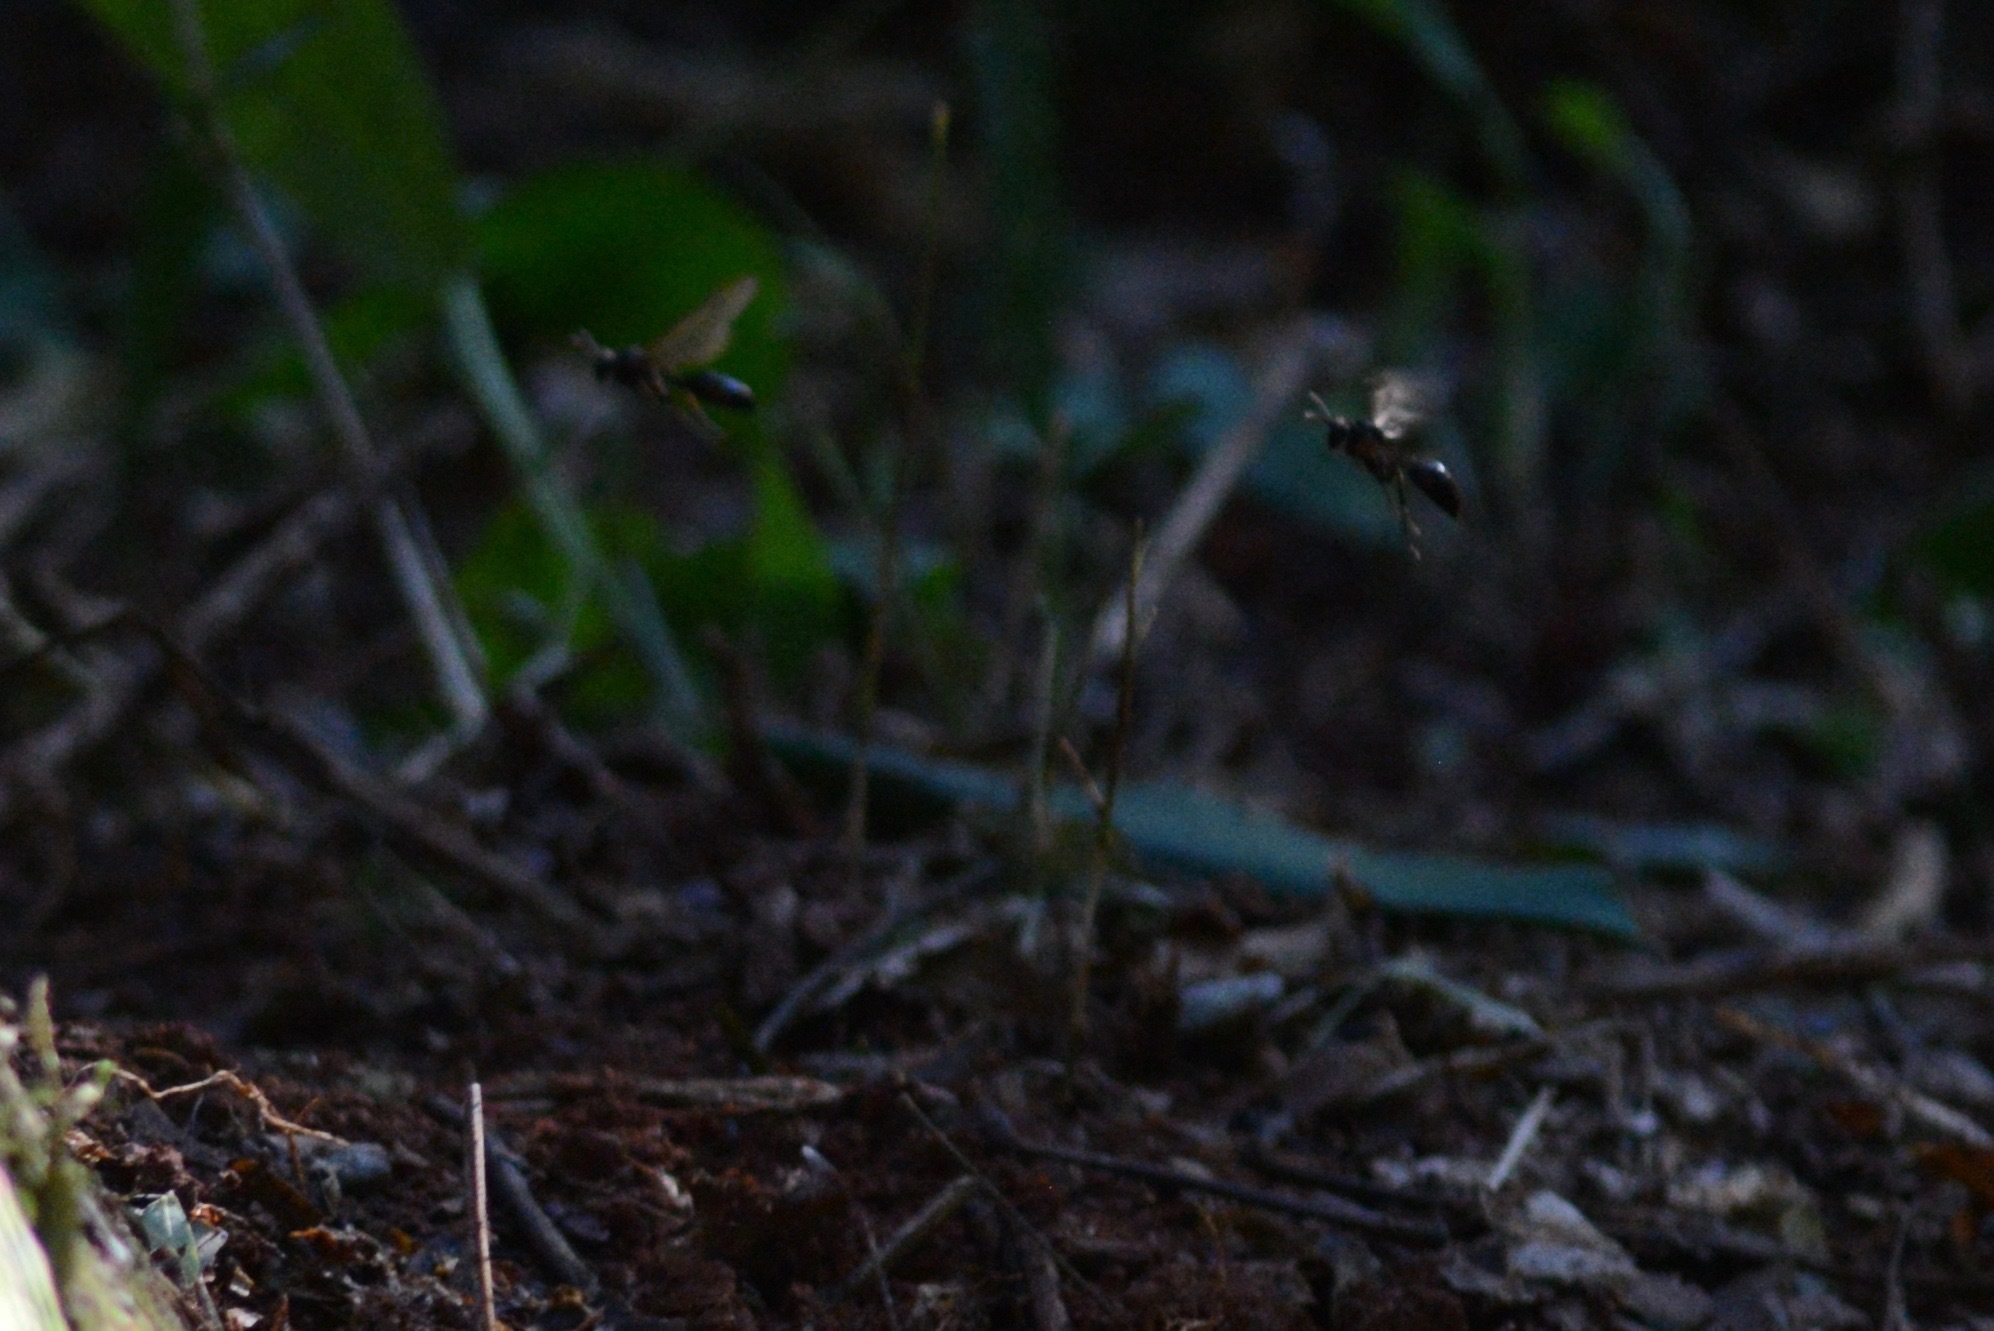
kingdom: Animalia
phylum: Arthropoda
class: Insecta
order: Hymenoptera
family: Vespidae
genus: Agelaia
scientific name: Agelaia angulata
